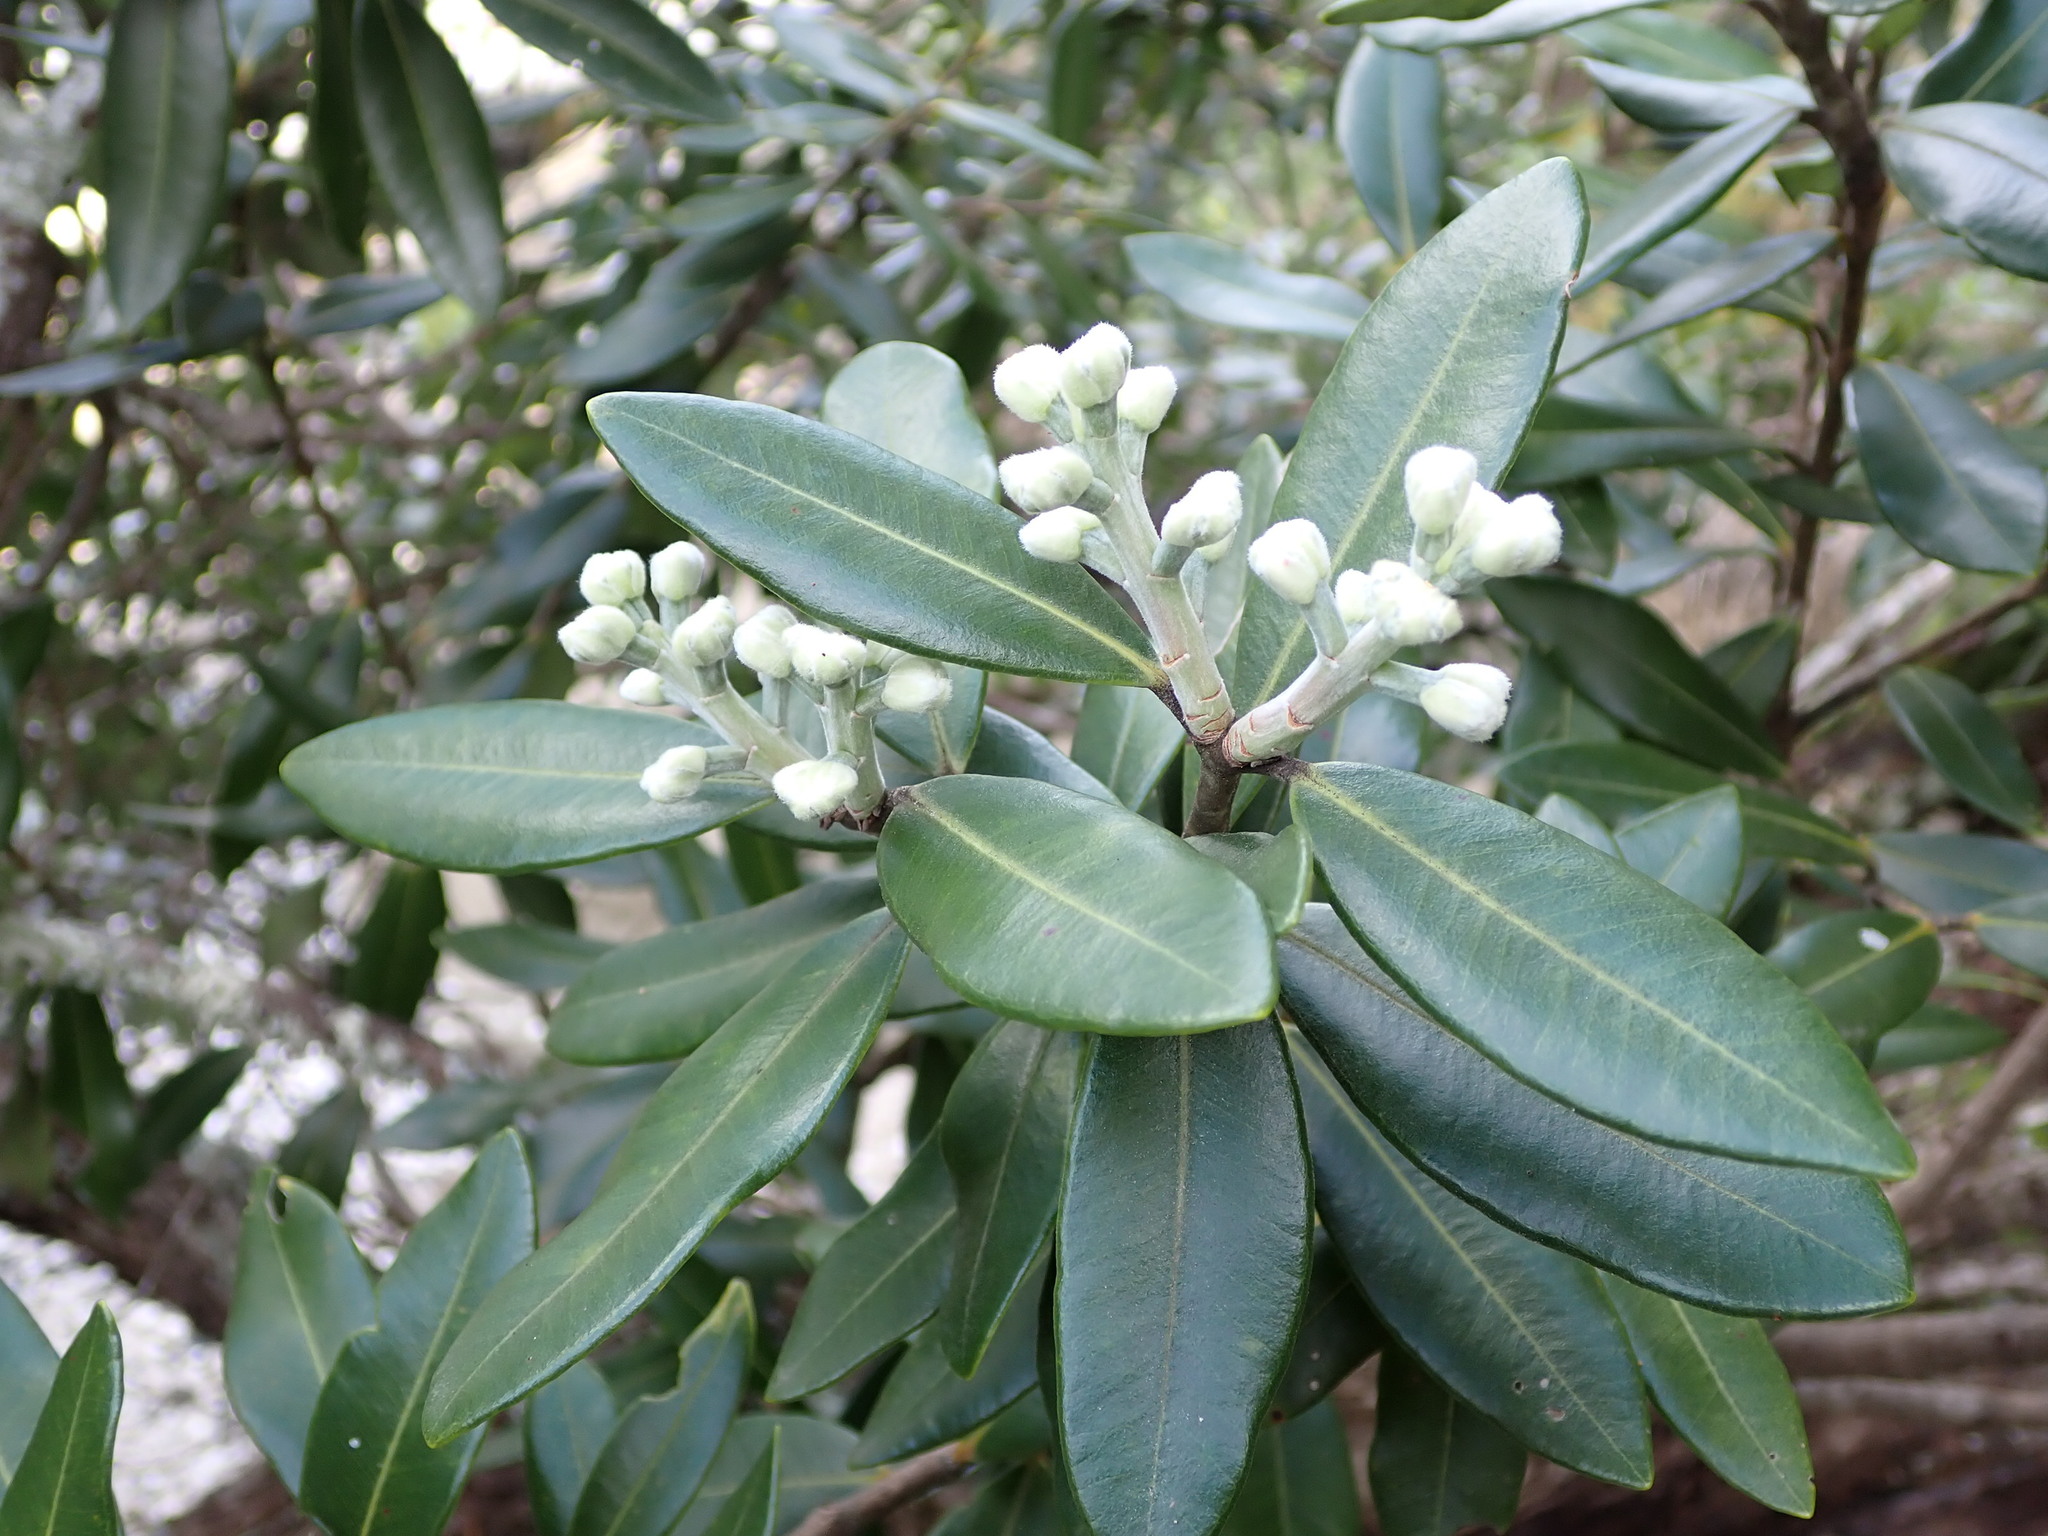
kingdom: Plantae
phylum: Tracheophyta
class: Magnoliopsida
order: Myrtales
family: Myrtaceae
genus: Metrosideros
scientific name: Metrosideros excelsa
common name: New zealand christmastree
